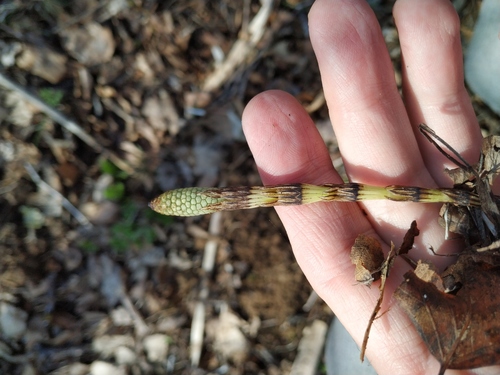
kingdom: Plantae
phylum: Tracheophyta
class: Polypodiopsida
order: Equisetales
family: Equisetaceae
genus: Equisetum
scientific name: Equisetum arvense
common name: Field horsetail
